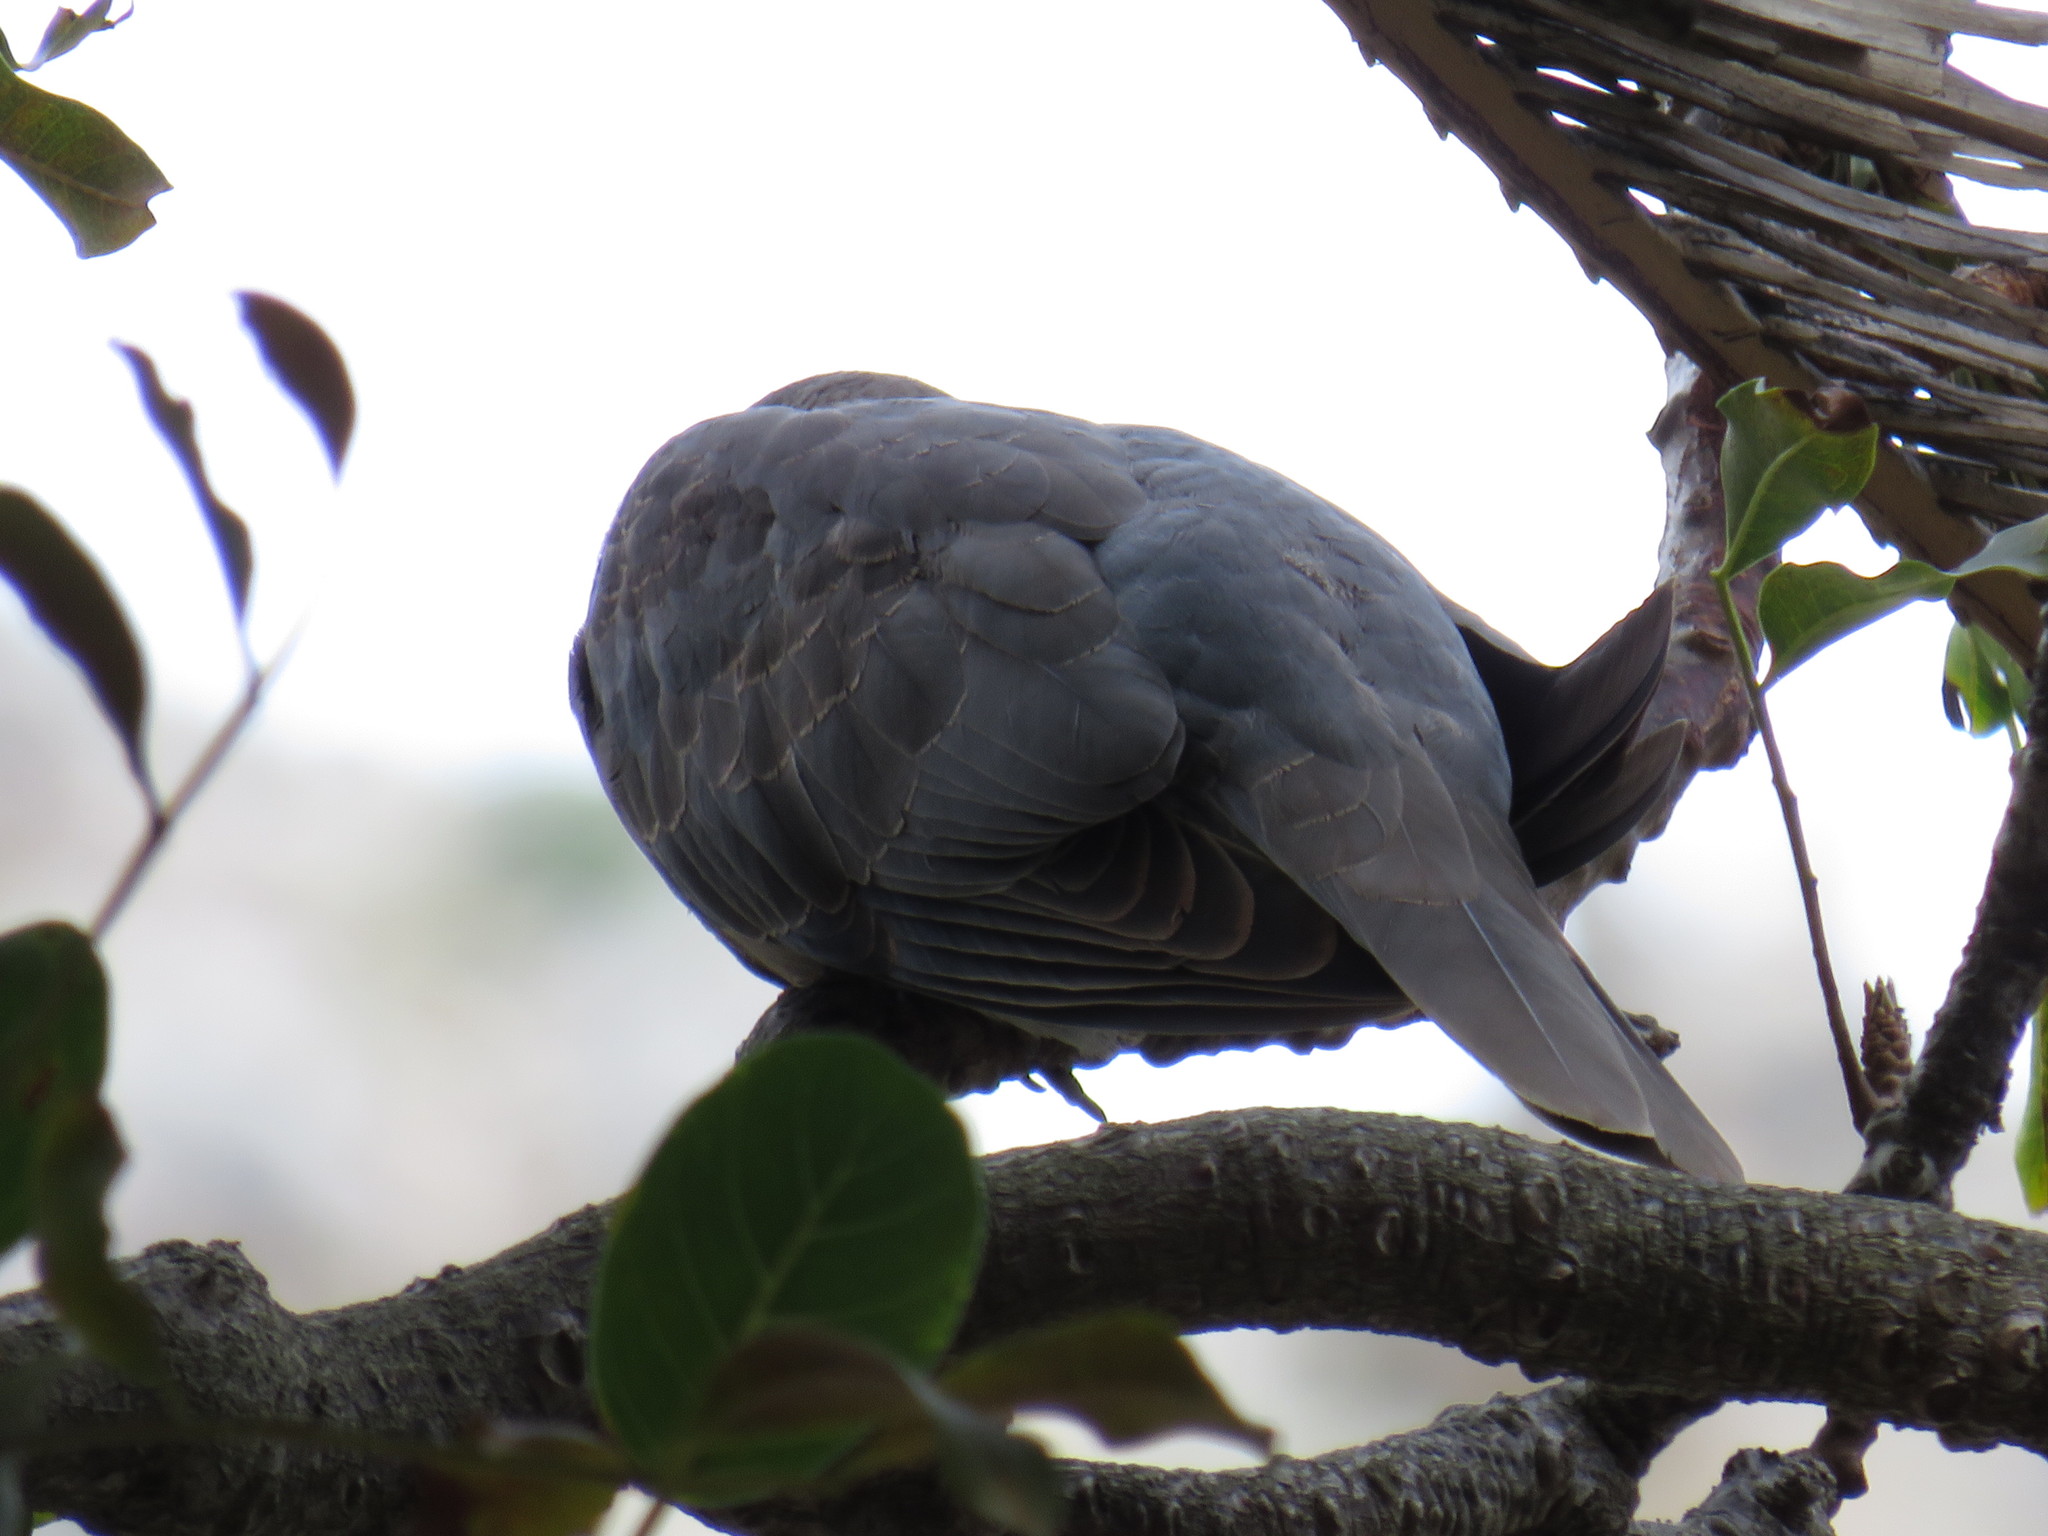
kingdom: Animalia
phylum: Chordata
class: Aves
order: Columbiformes
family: Columbidae
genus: Streptopelia
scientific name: Streptopelia semitorquata
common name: Red-eyed dove
